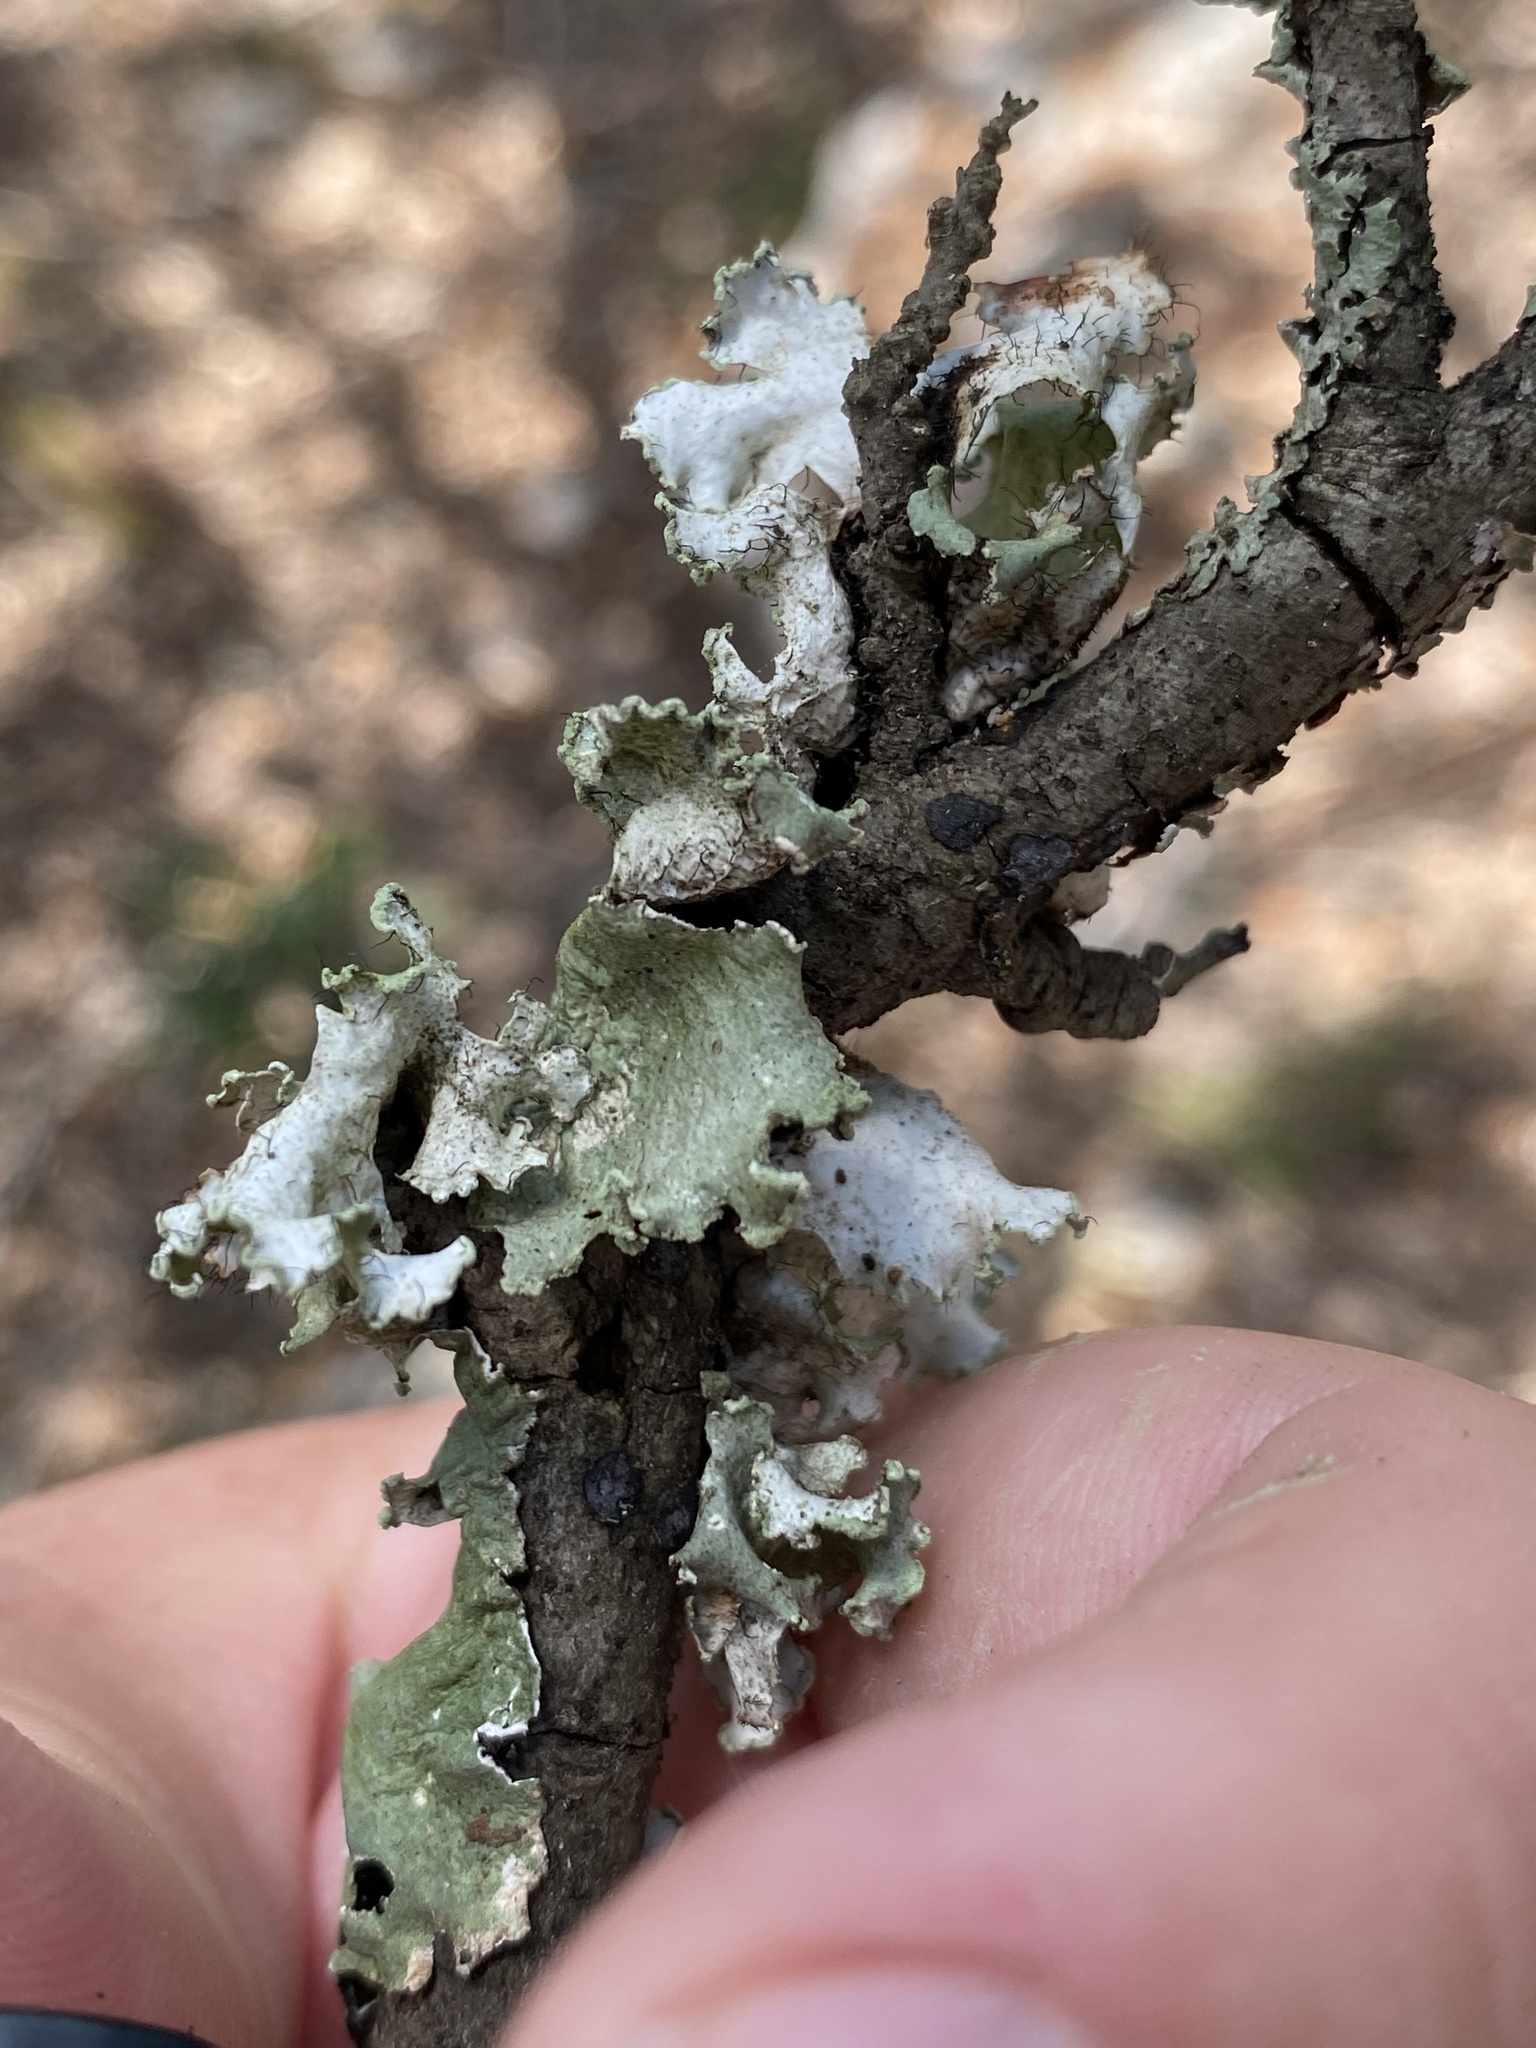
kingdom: Fungi
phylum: Ascomycota
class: Lecanoromycetes
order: Lecanorales
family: Parmeliaceae
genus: Parmotrema
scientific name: Parmotrema austrosinense
